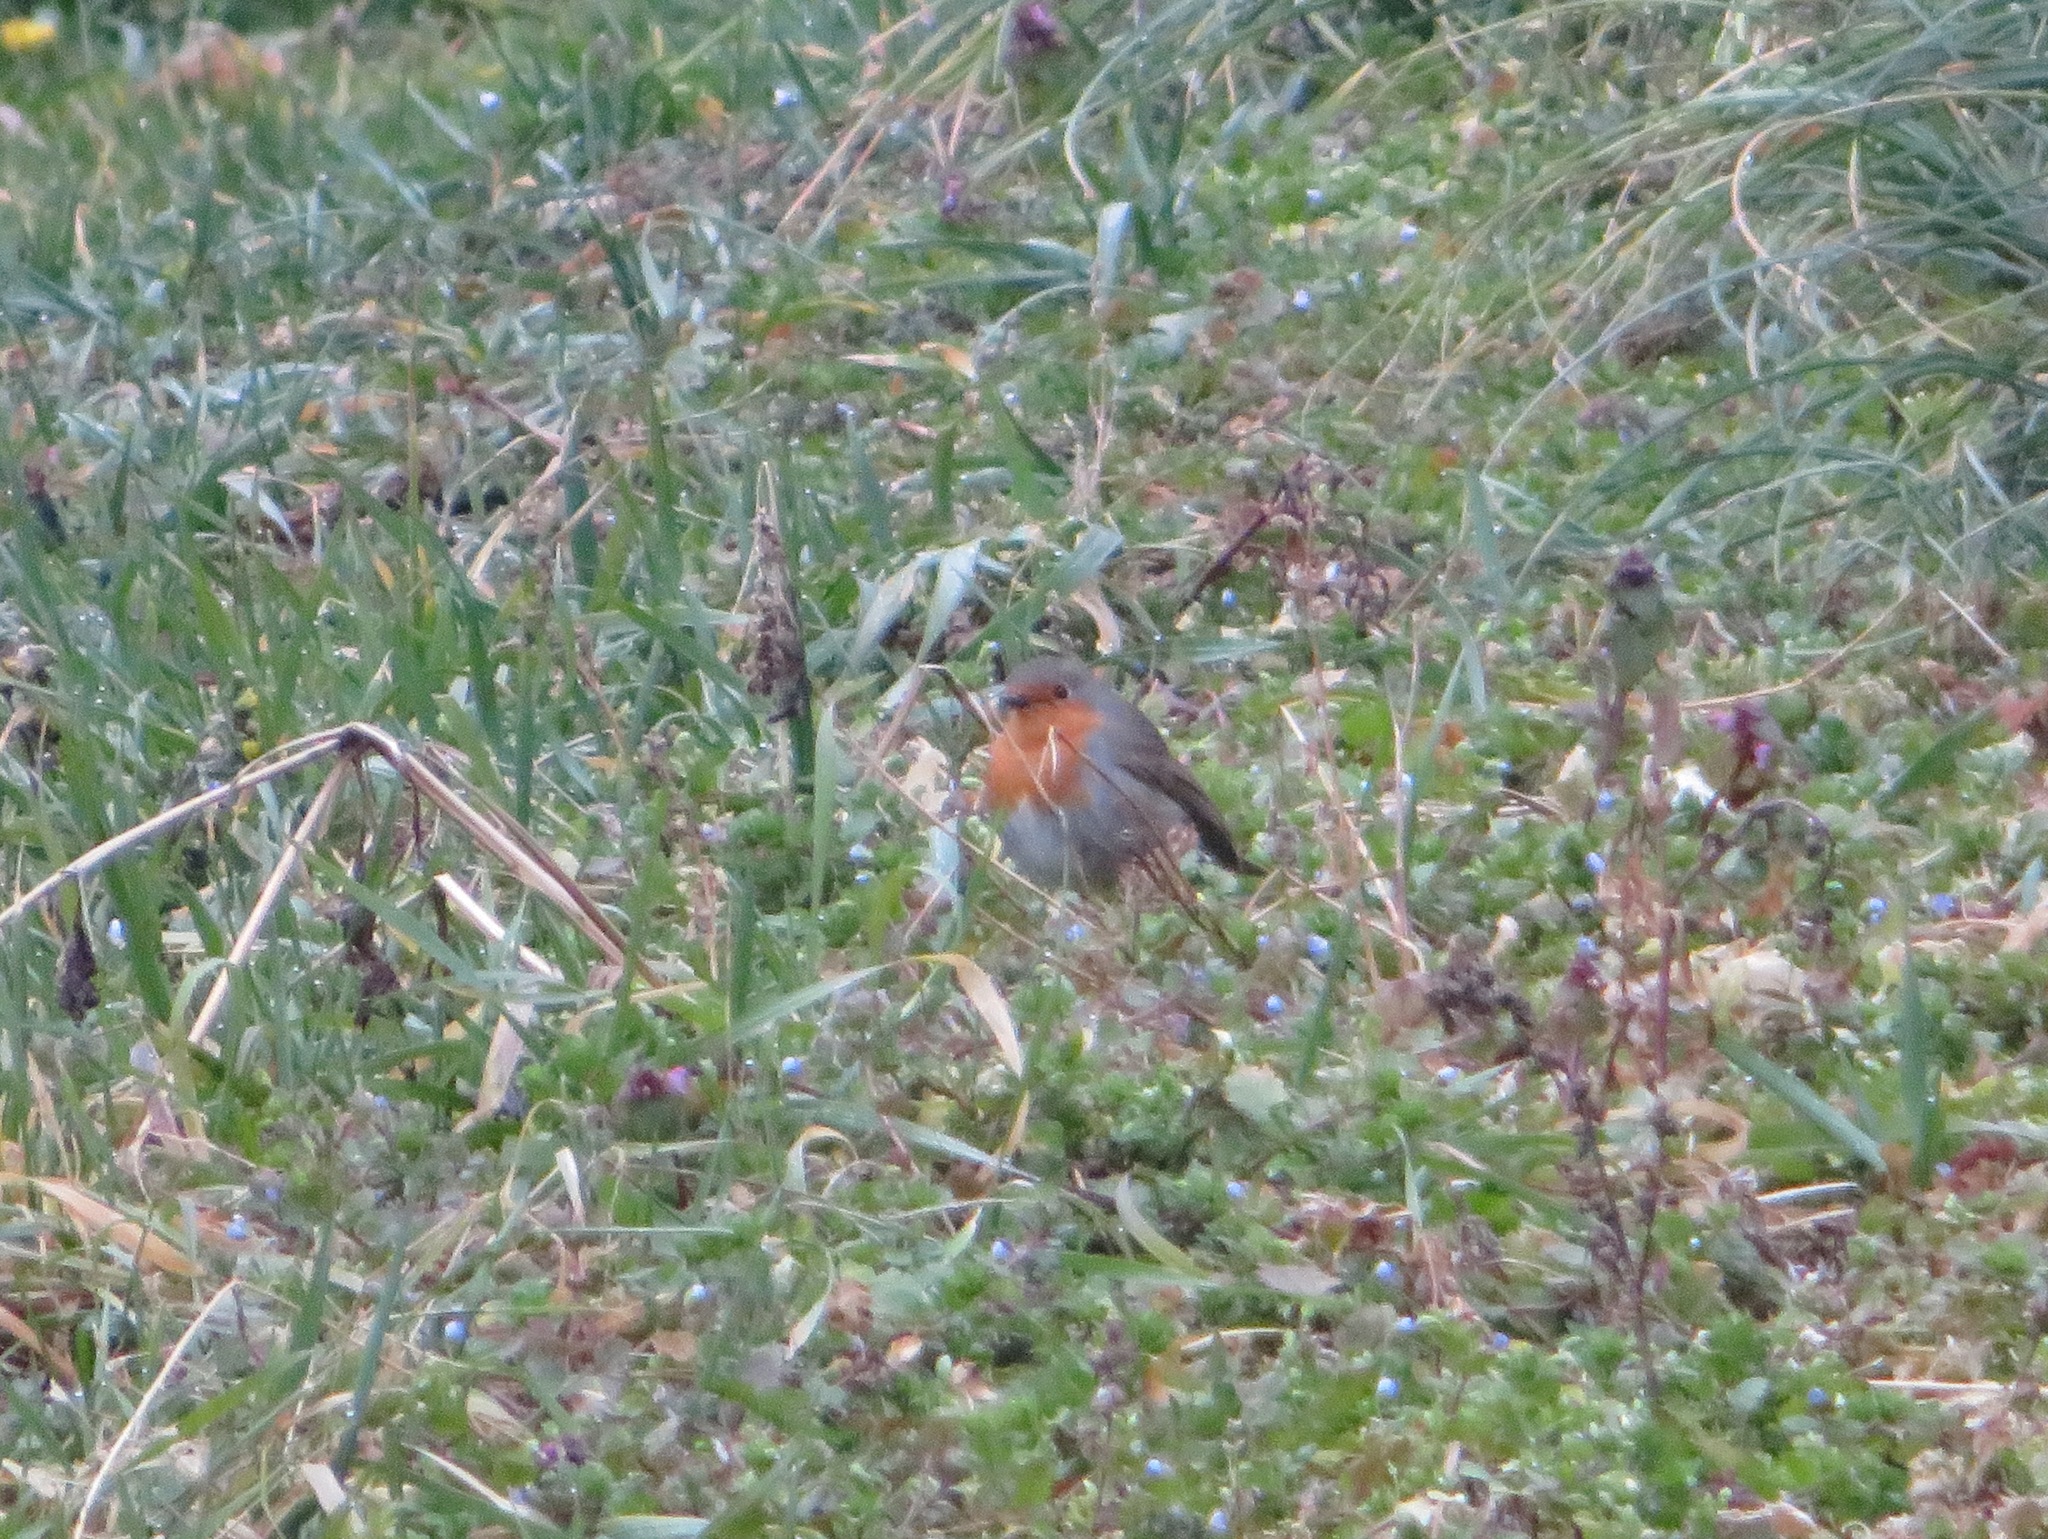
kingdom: Animalia
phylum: Chordata
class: Aves
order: Passeriformes
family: Muscicapidae
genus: Erithacus
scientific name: Erithacus rubecula
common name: European robin
